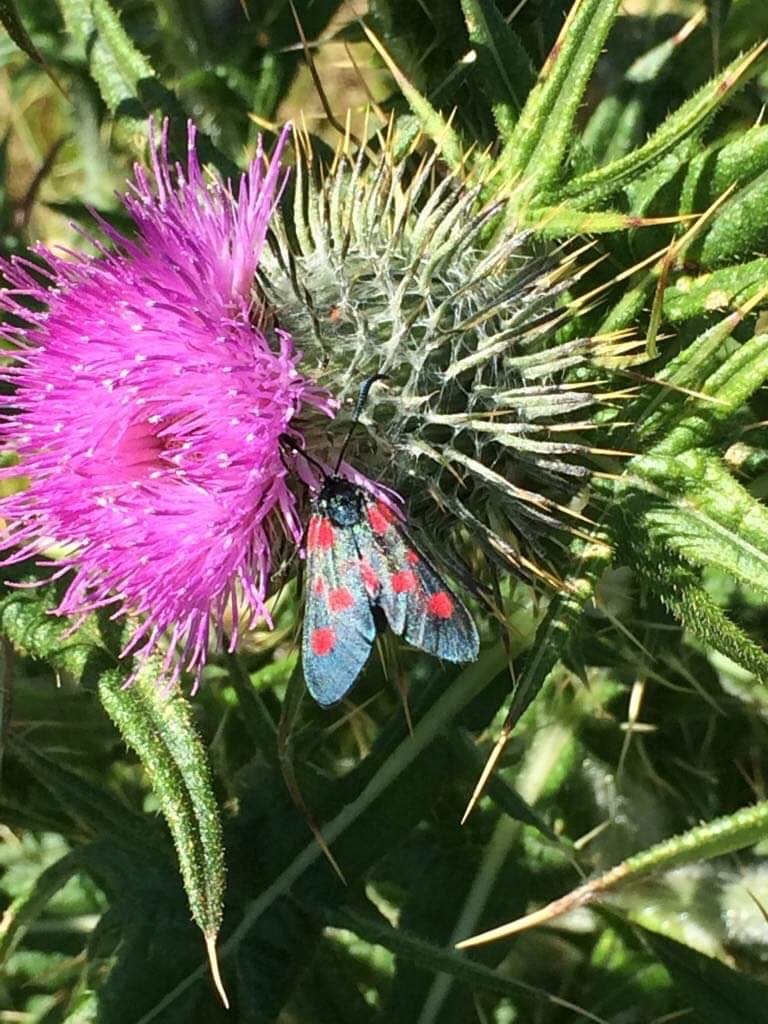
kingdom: Animalia
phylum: Arthropoda
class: Insecta
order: Lepidoptera
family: Zygaenidae
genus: Zygaena
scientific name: Zygaena lonicerae
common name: Narrow-bordered five-spot burnet
